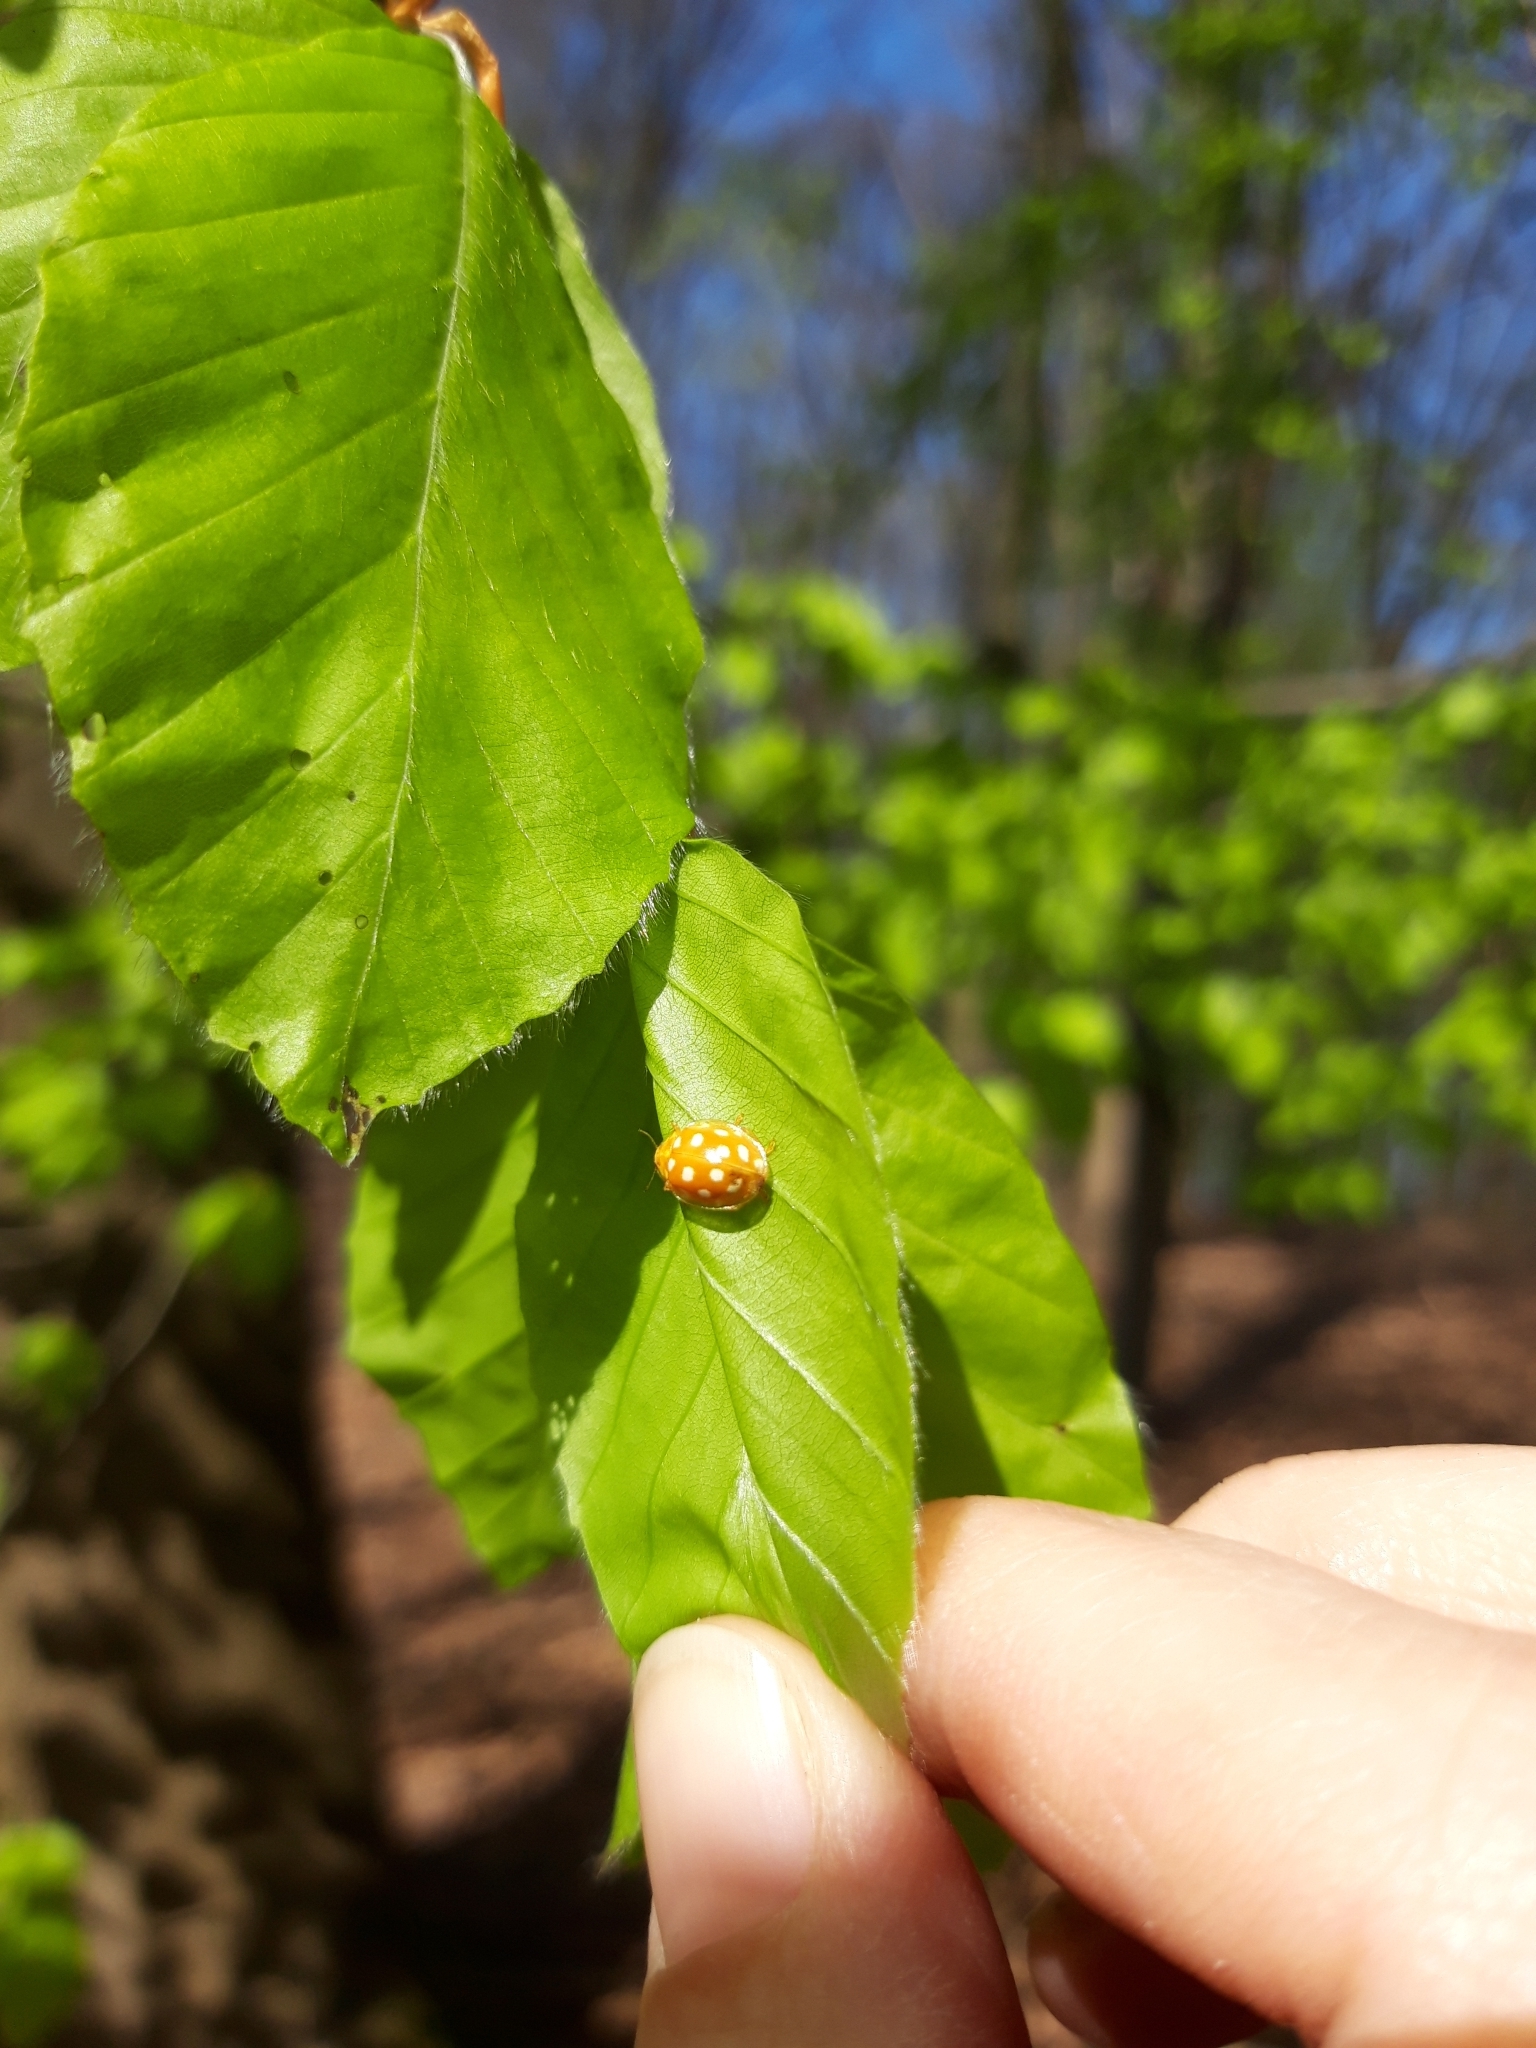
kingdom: Animalia
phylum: Arthropoda
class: Insecta
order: Coleoptera
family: Coccinellidae
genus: Halyzia
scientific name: Halyzia sedecimguttata
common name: Orange ladybird
